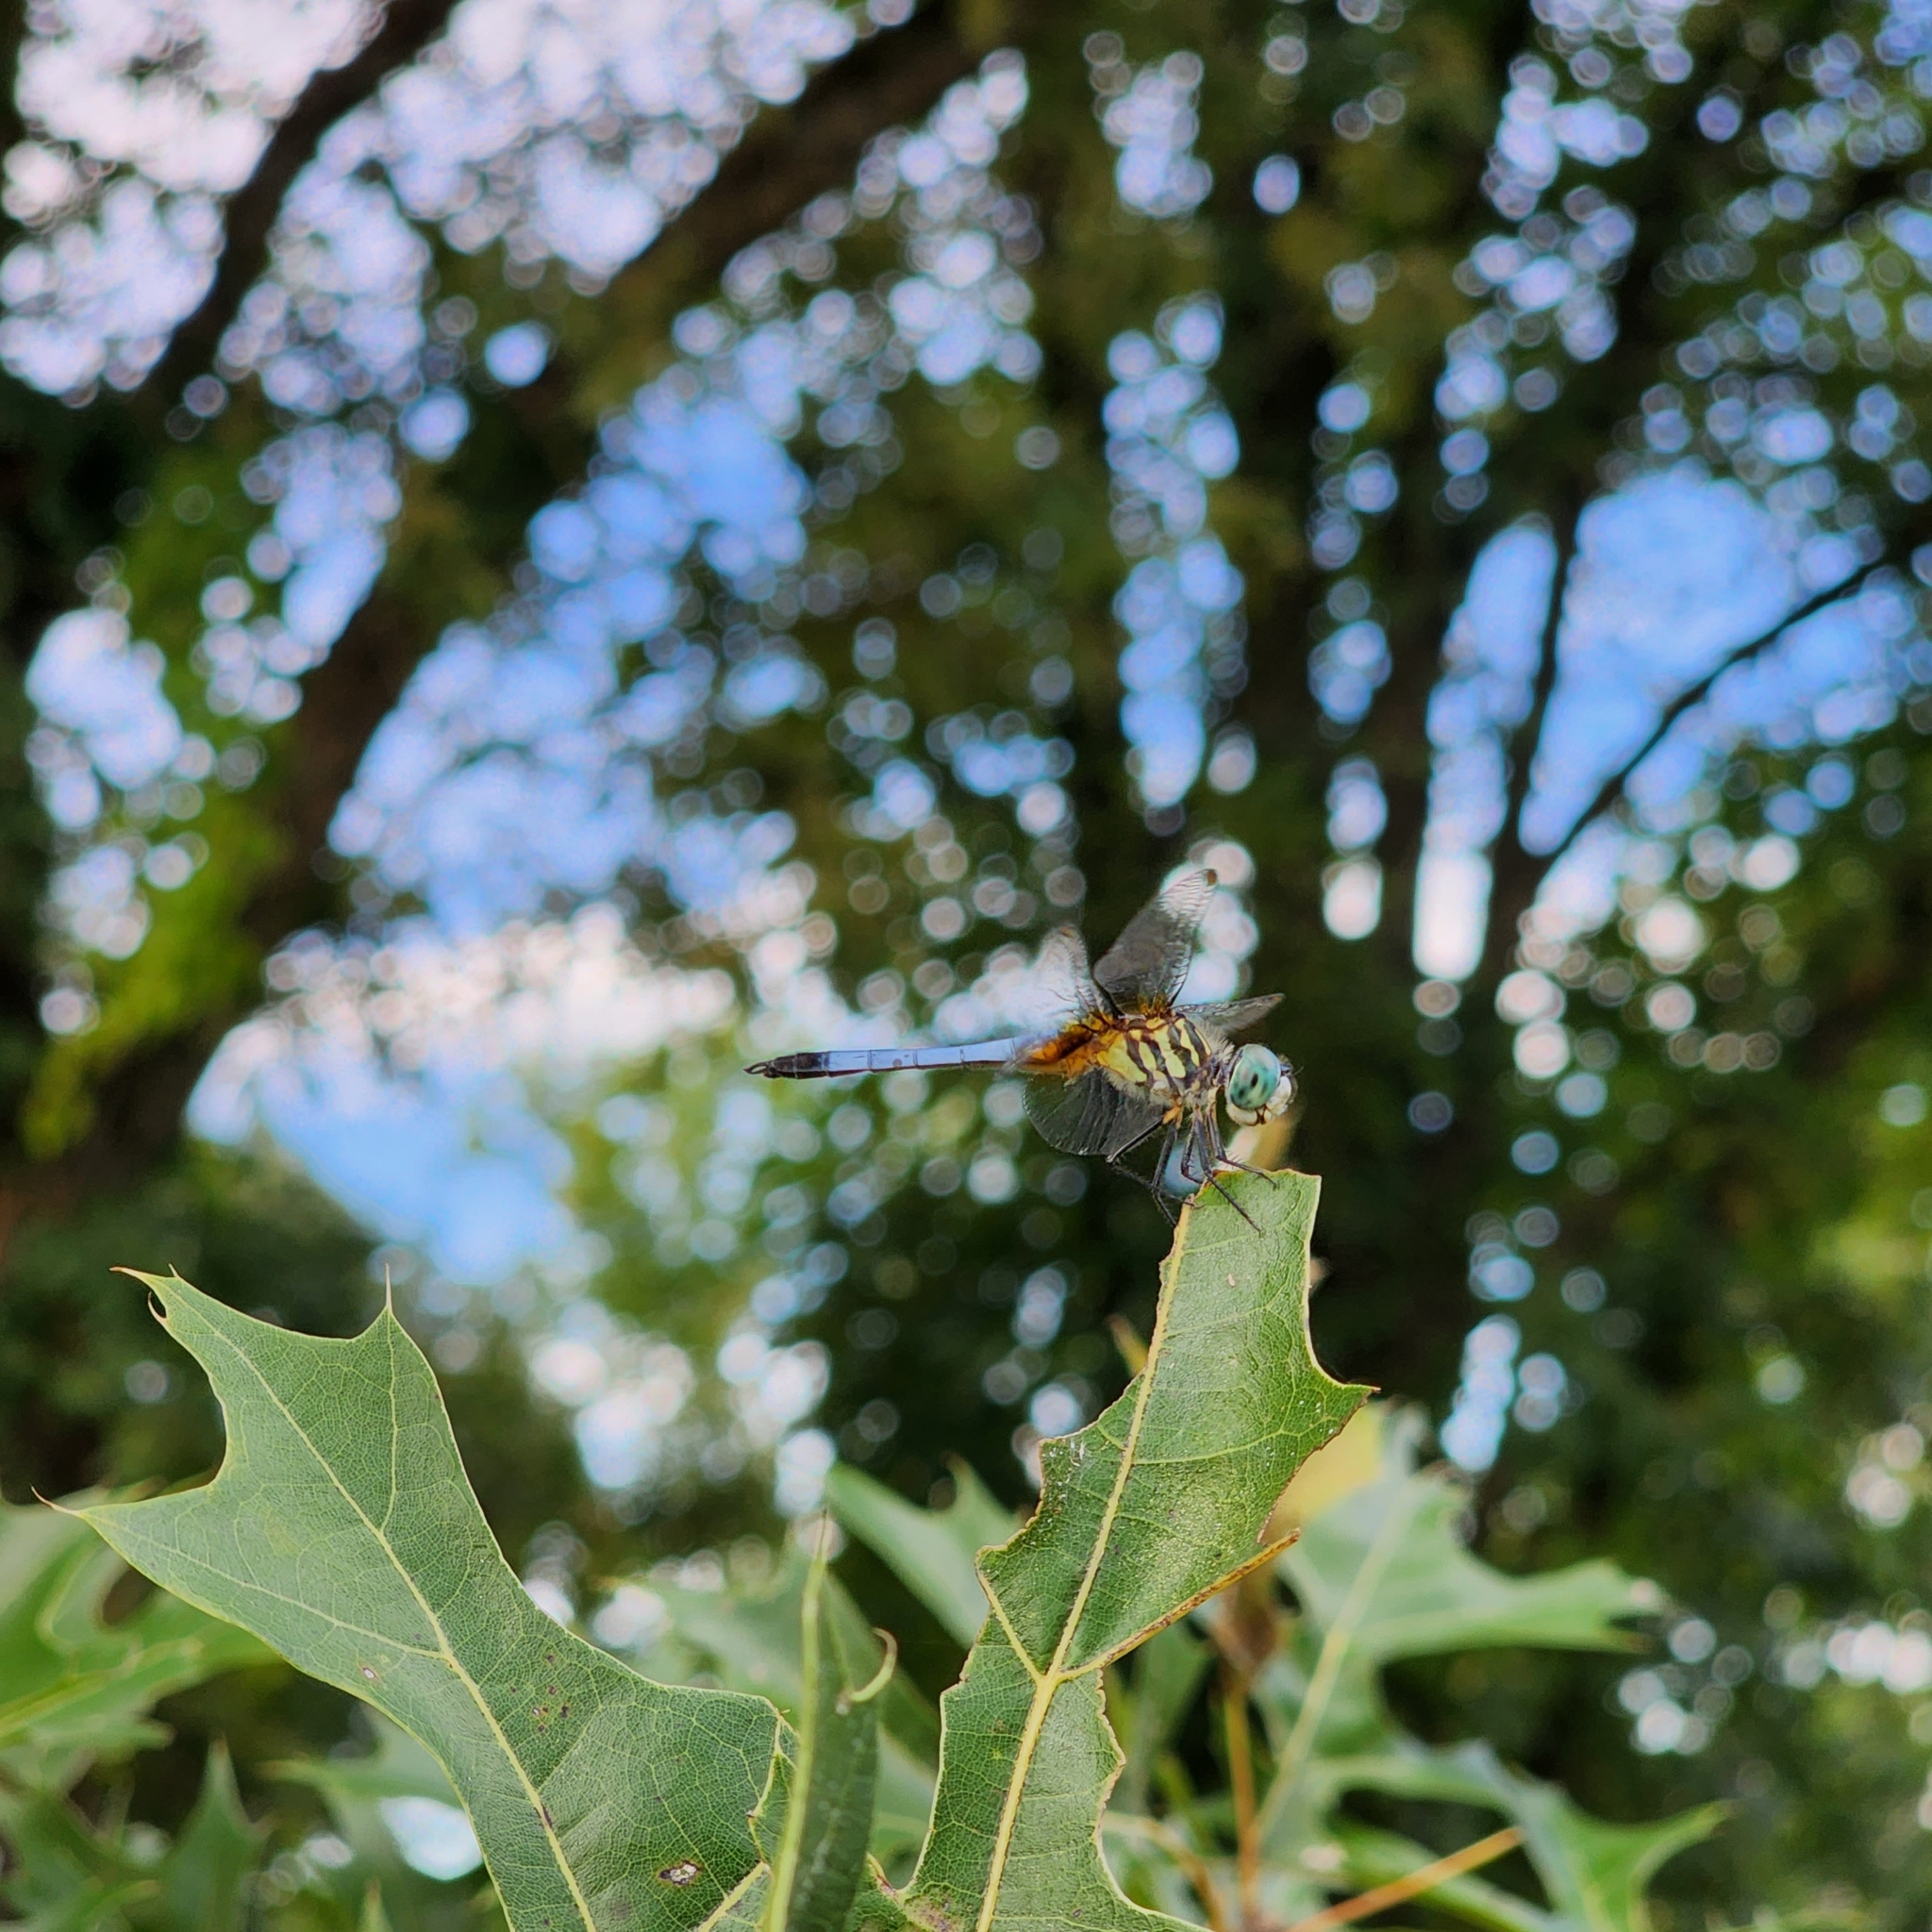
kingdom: Animalia
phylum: Arthropoda
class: Insecta
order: Odonata
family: Libellulidae
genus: Pachydiplax
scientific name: Pachydiplax longipennis
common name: Blue dasher
